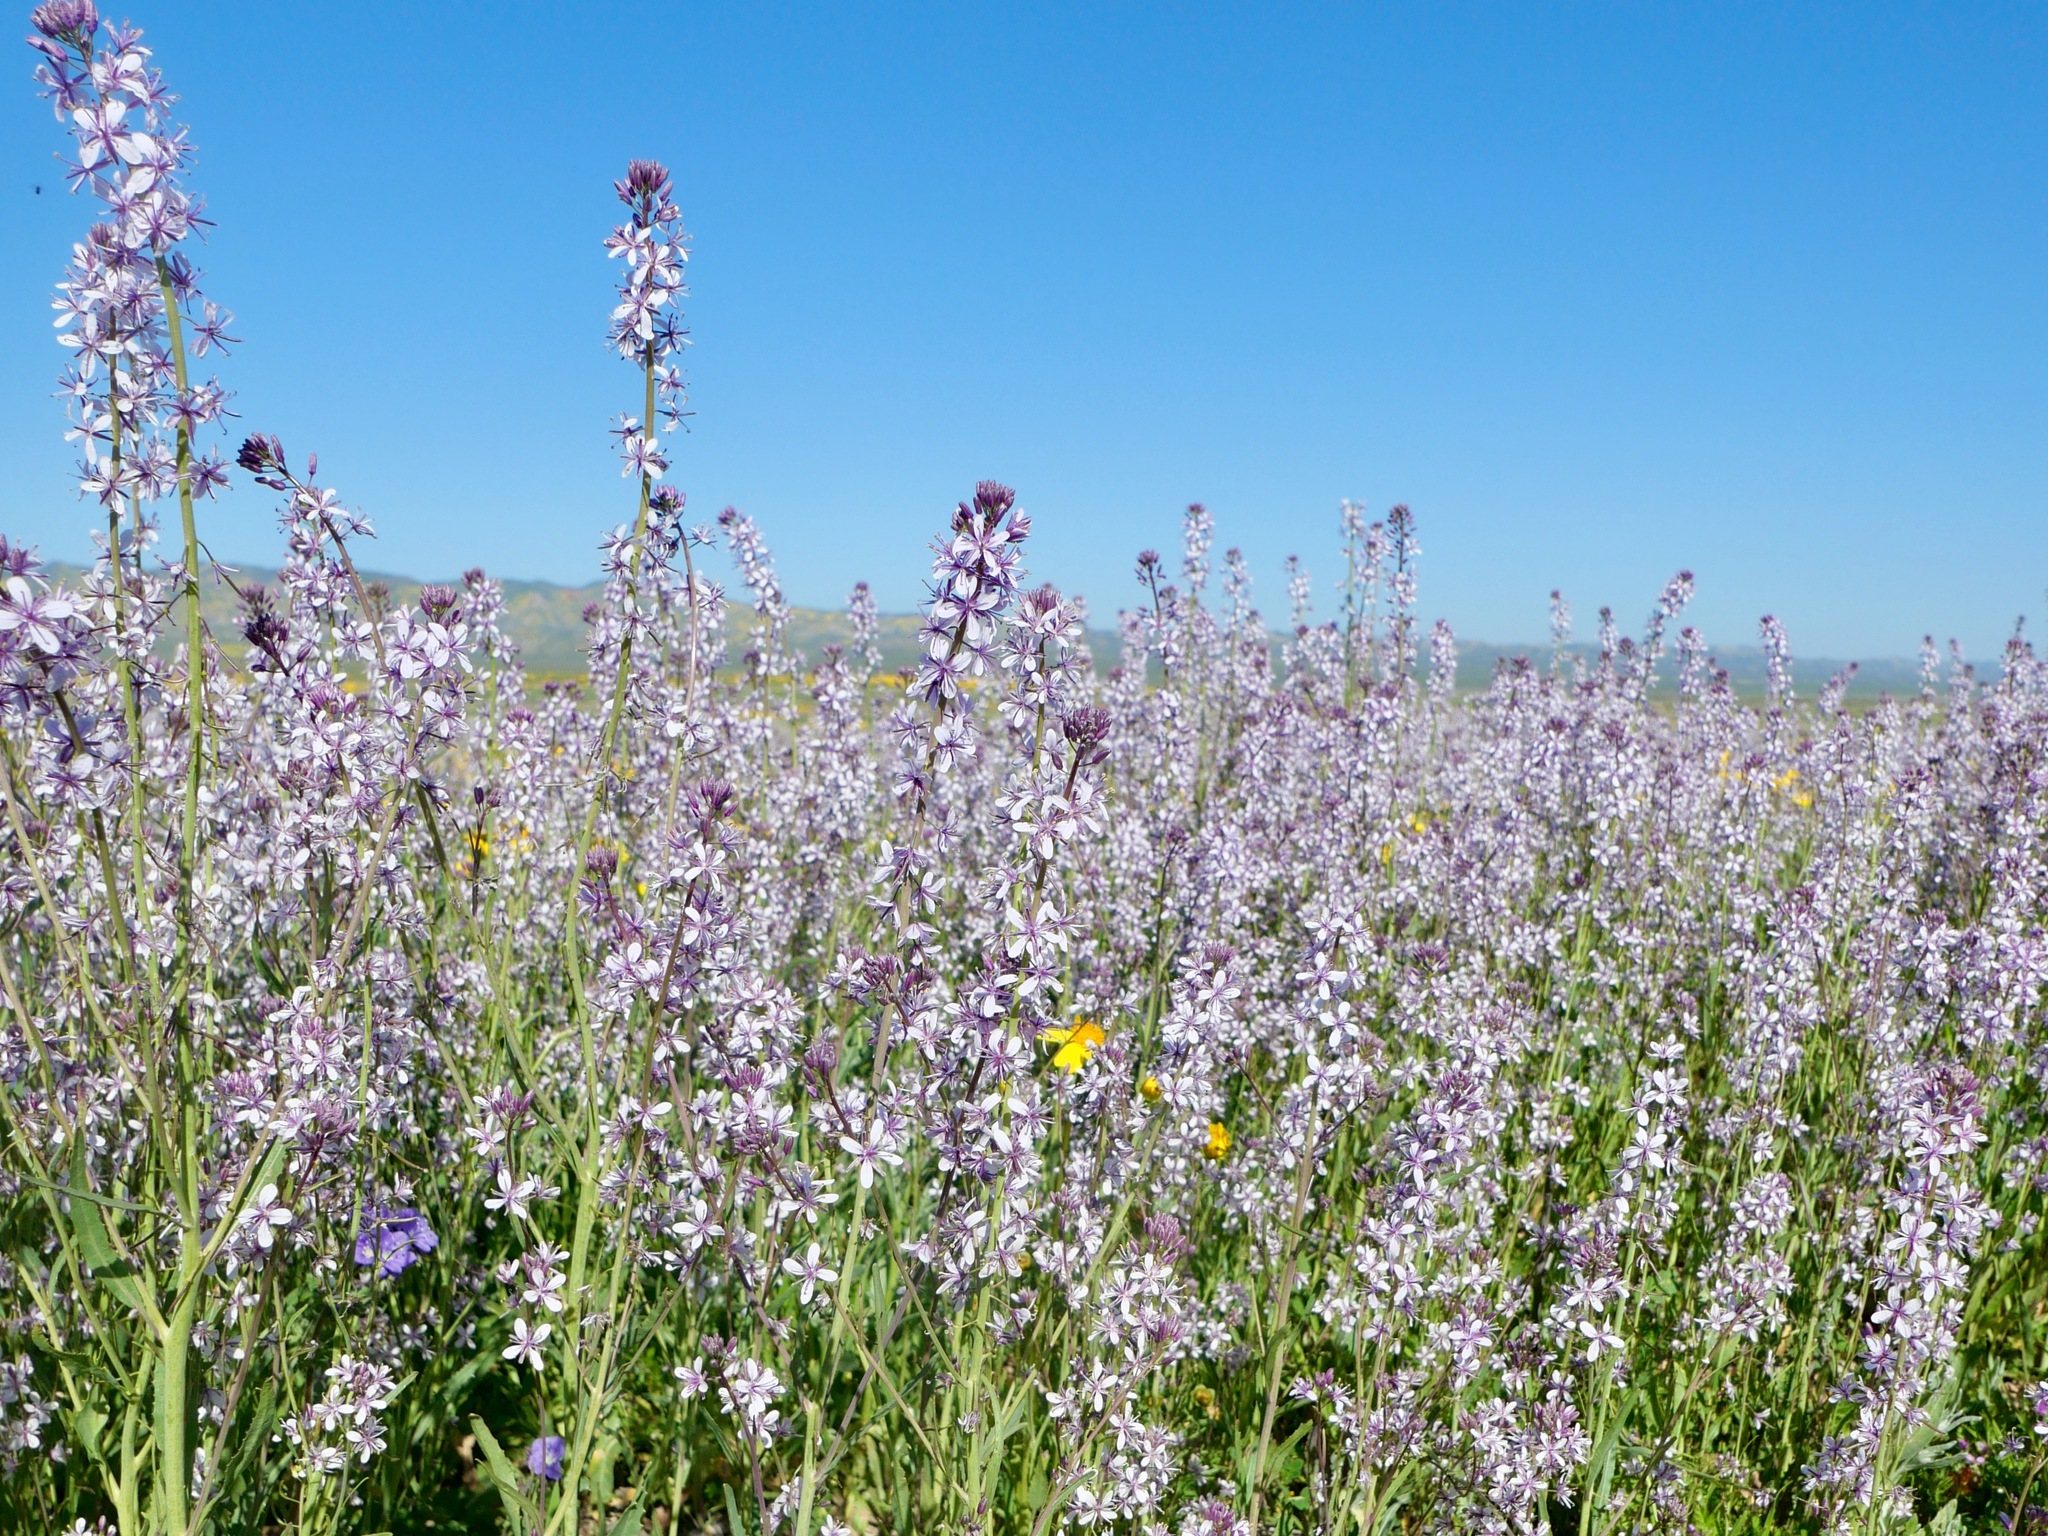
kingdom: Plantae
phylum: Tracheophyta
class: Magnoliopsida
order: Brassicales
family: Brassicaceae
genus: Streptanthus
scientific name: Streptanthus anceps
